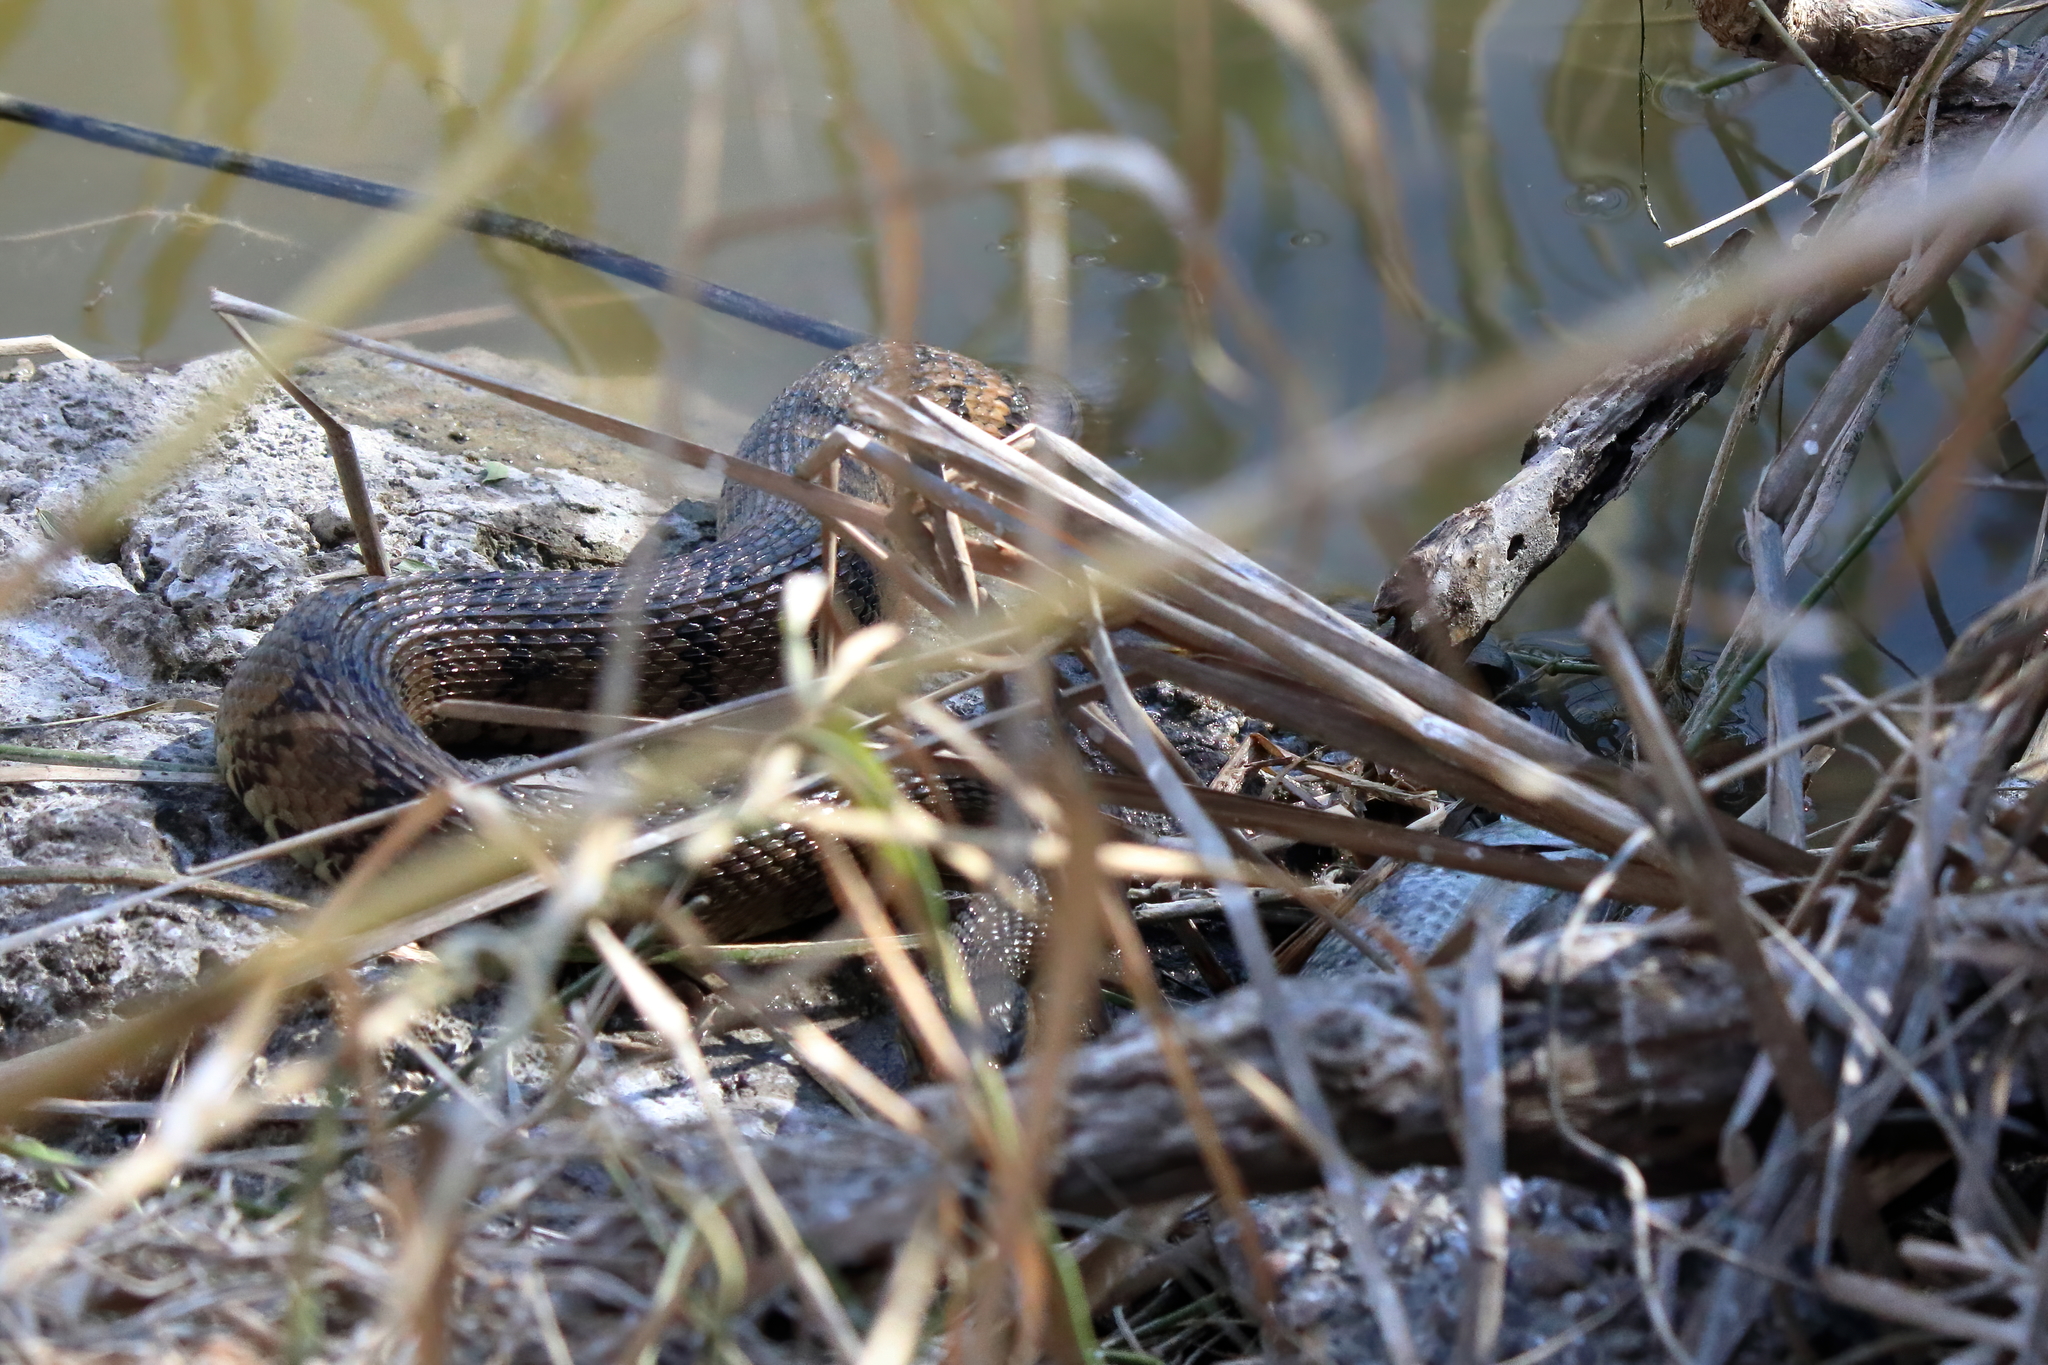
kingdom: Animalia
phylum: Chordata
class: Squamata
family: Colubridae
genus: Nerodia
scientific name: Nerodia rhombifer
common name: Diamondback water snake
